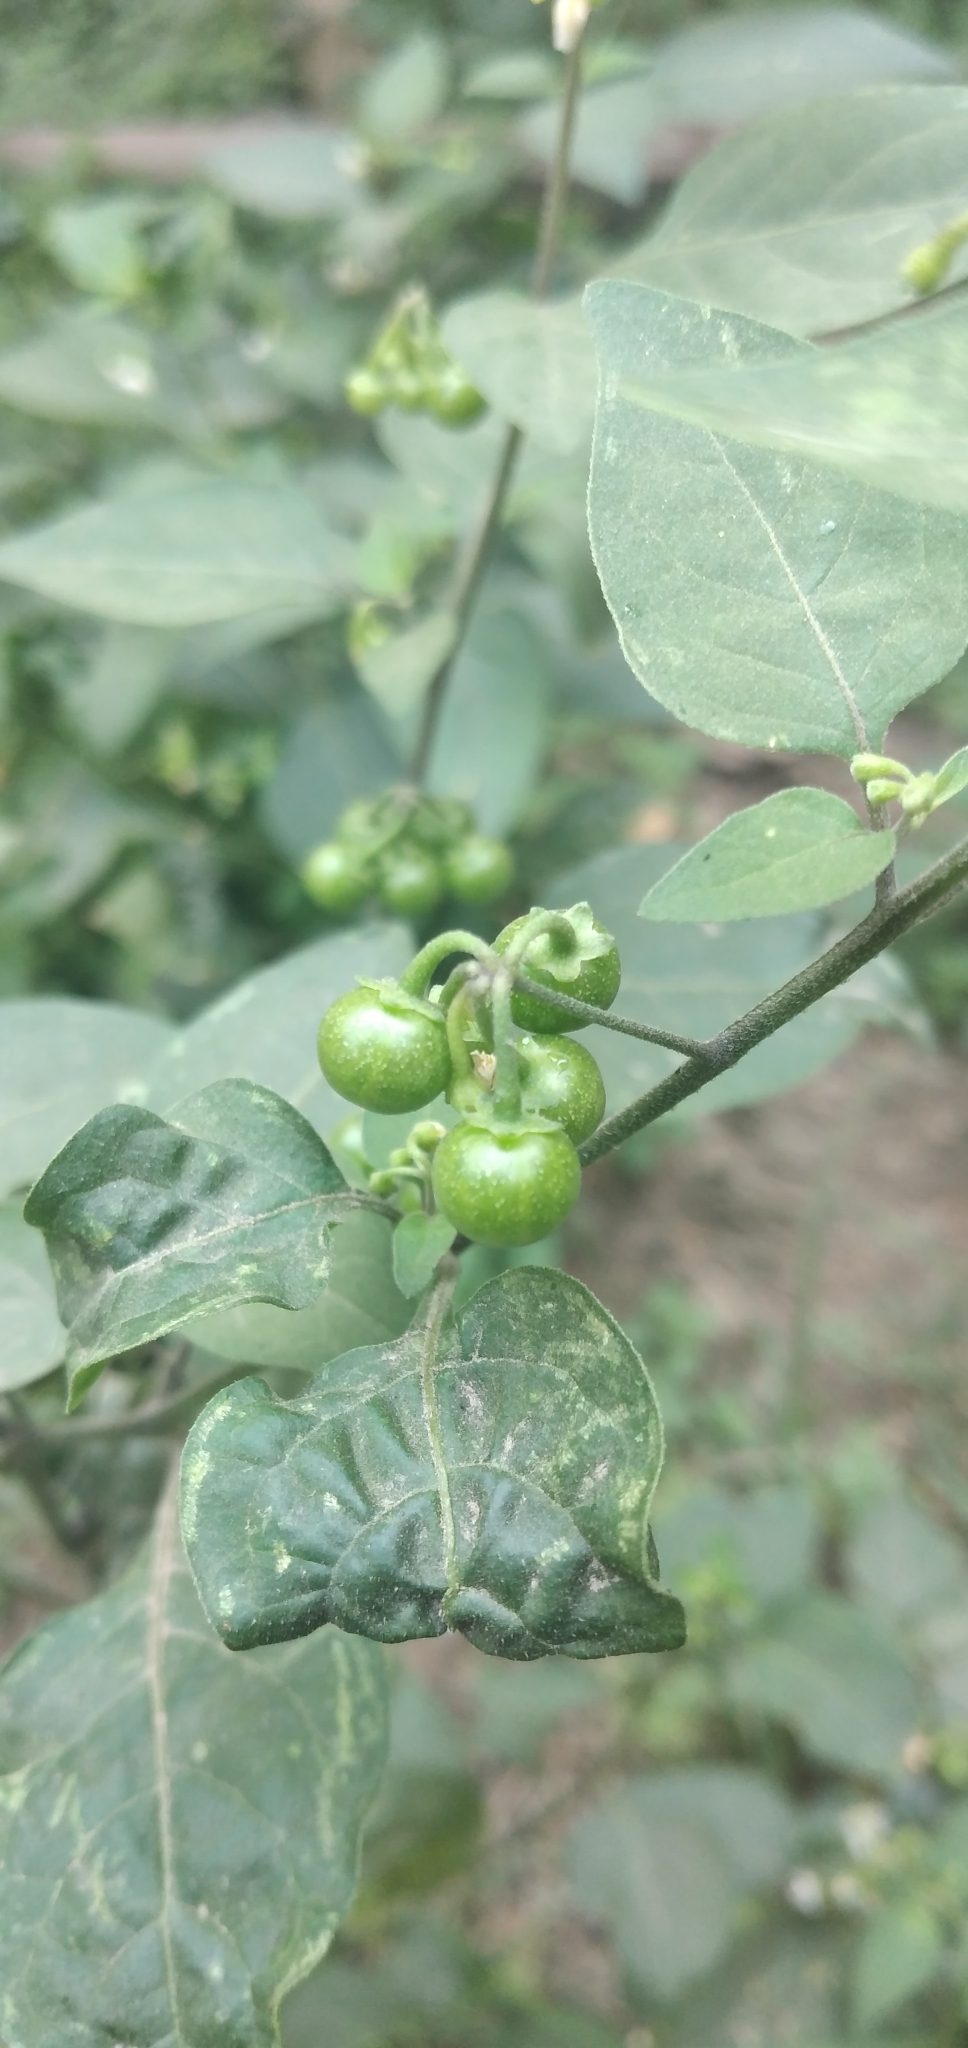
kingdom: Plantae
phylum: Tracheophyta
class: Magnoliopsida
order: Solanales
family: Solanaceae
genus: Solanum
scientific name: Solanum americanum
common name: American black nightshade
